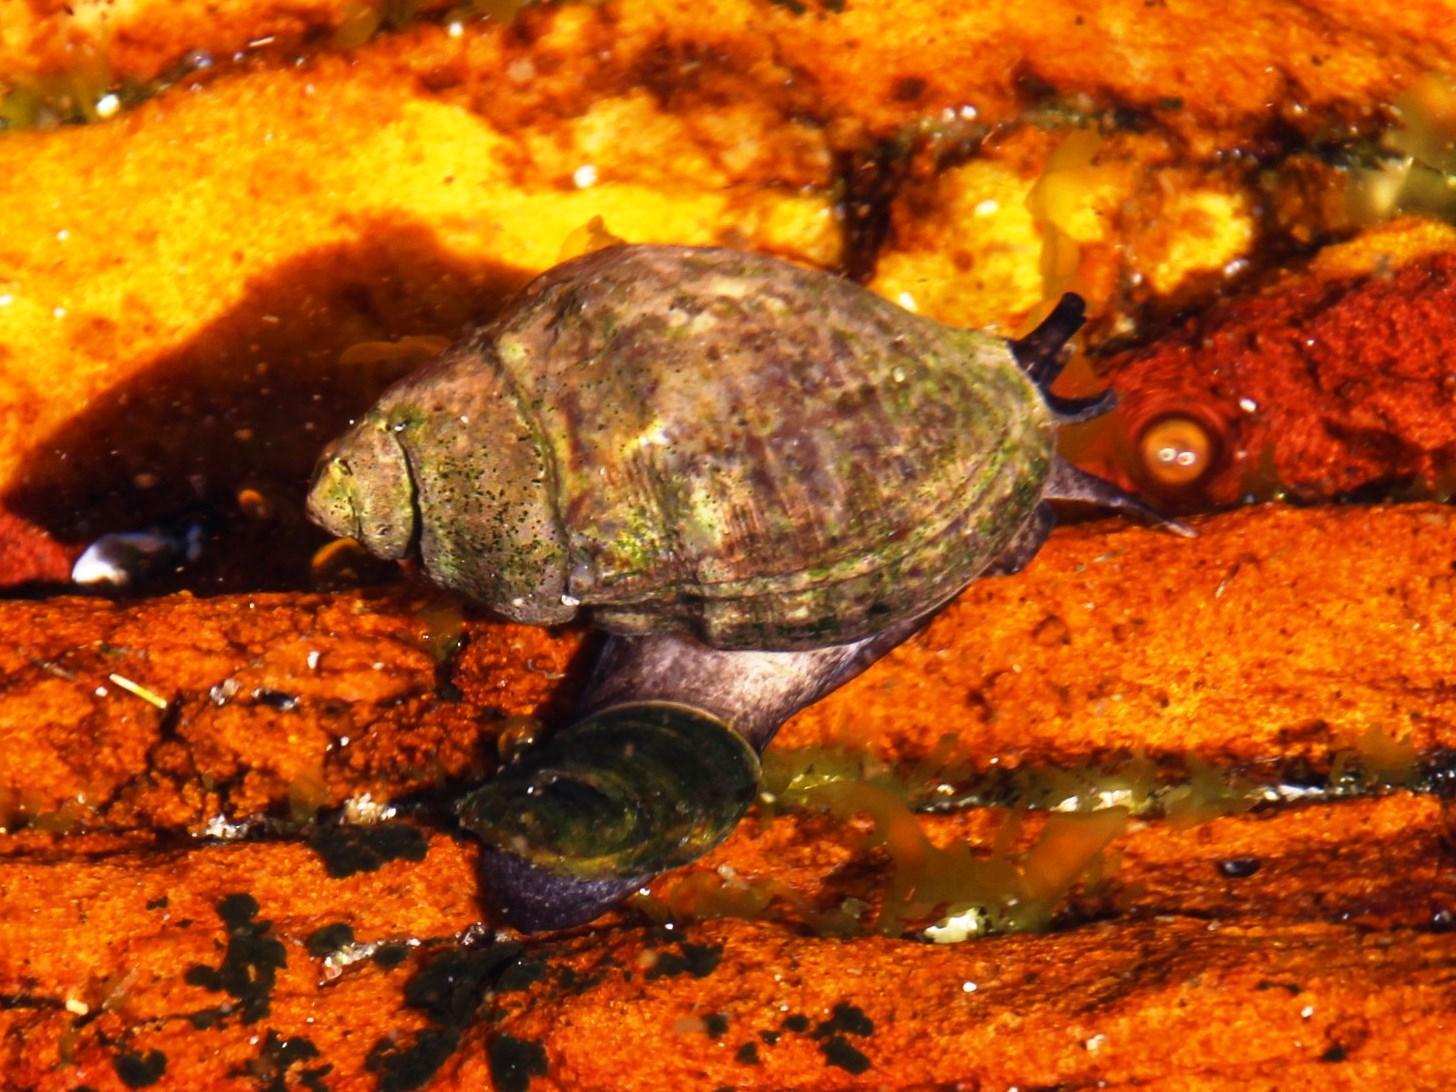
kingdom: Animalia
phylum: Mollusca
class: Gastropoda
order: Neogastropoda
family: Buccinidae
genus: Burnupena
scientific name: Burnupena cincta
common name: Ridged burnupena
